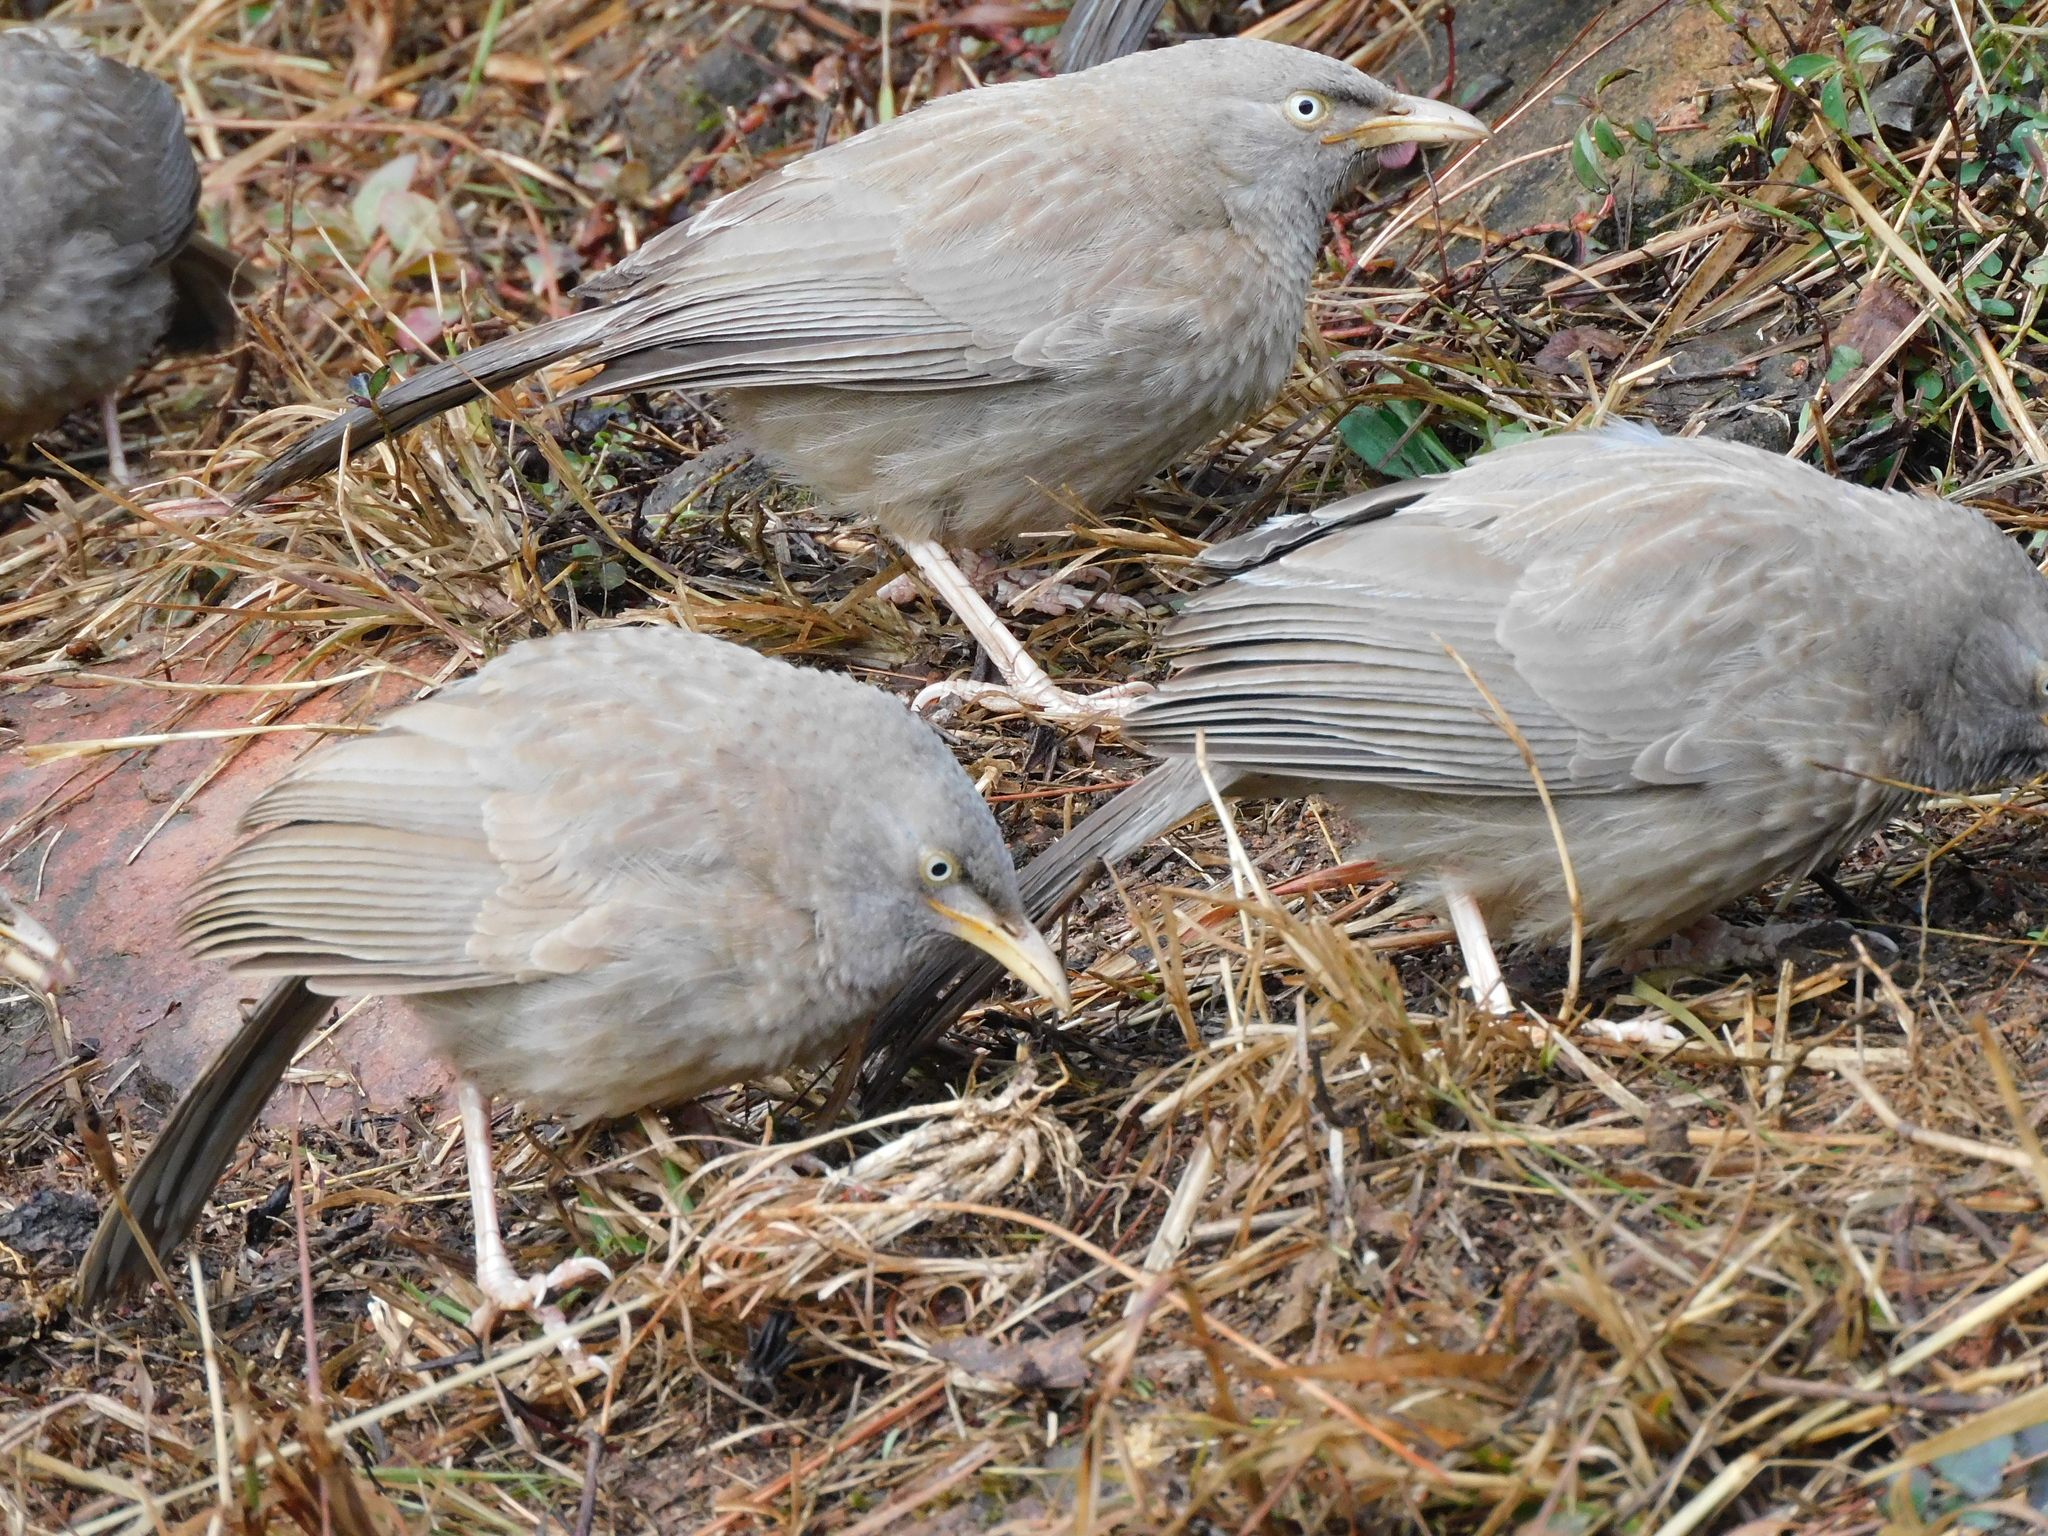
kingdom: Animalia
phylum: Chordata
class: Aves
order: Passeriformes
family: Leiothrichidae
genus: Turdoides
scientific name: Turdoides striata
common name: Jungle babbler
